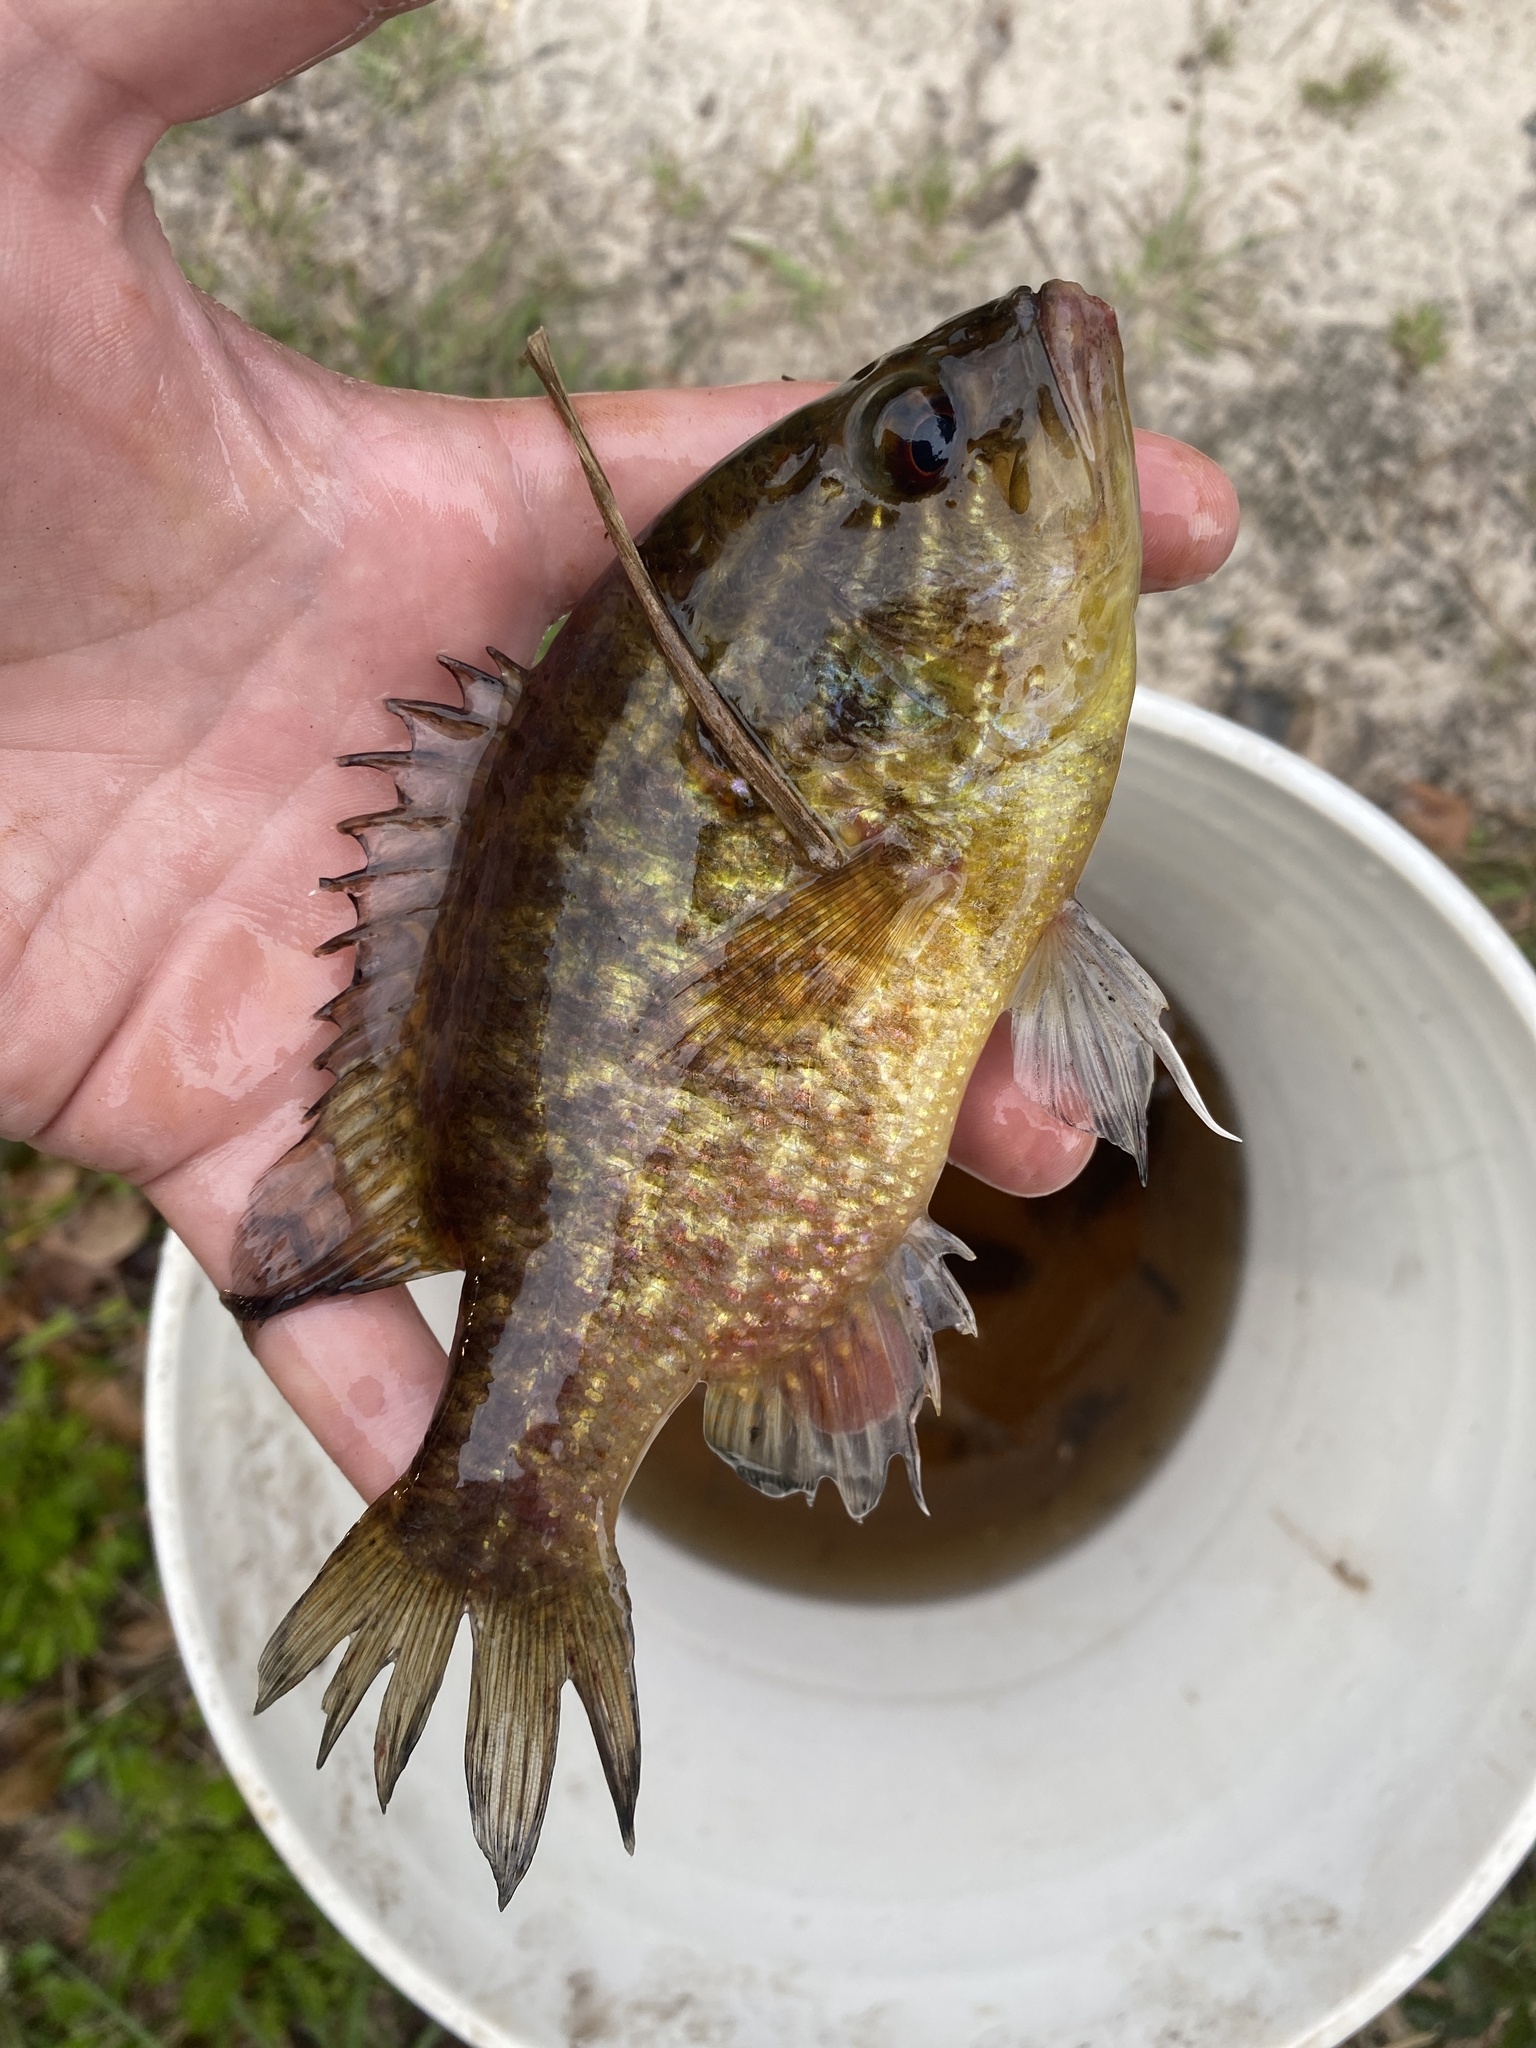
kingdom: Animalia
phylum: Chordata
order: Perciformes
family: Centrarchidae
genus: Lepomis
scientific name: Lepomis gulosus
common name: Warmouth
